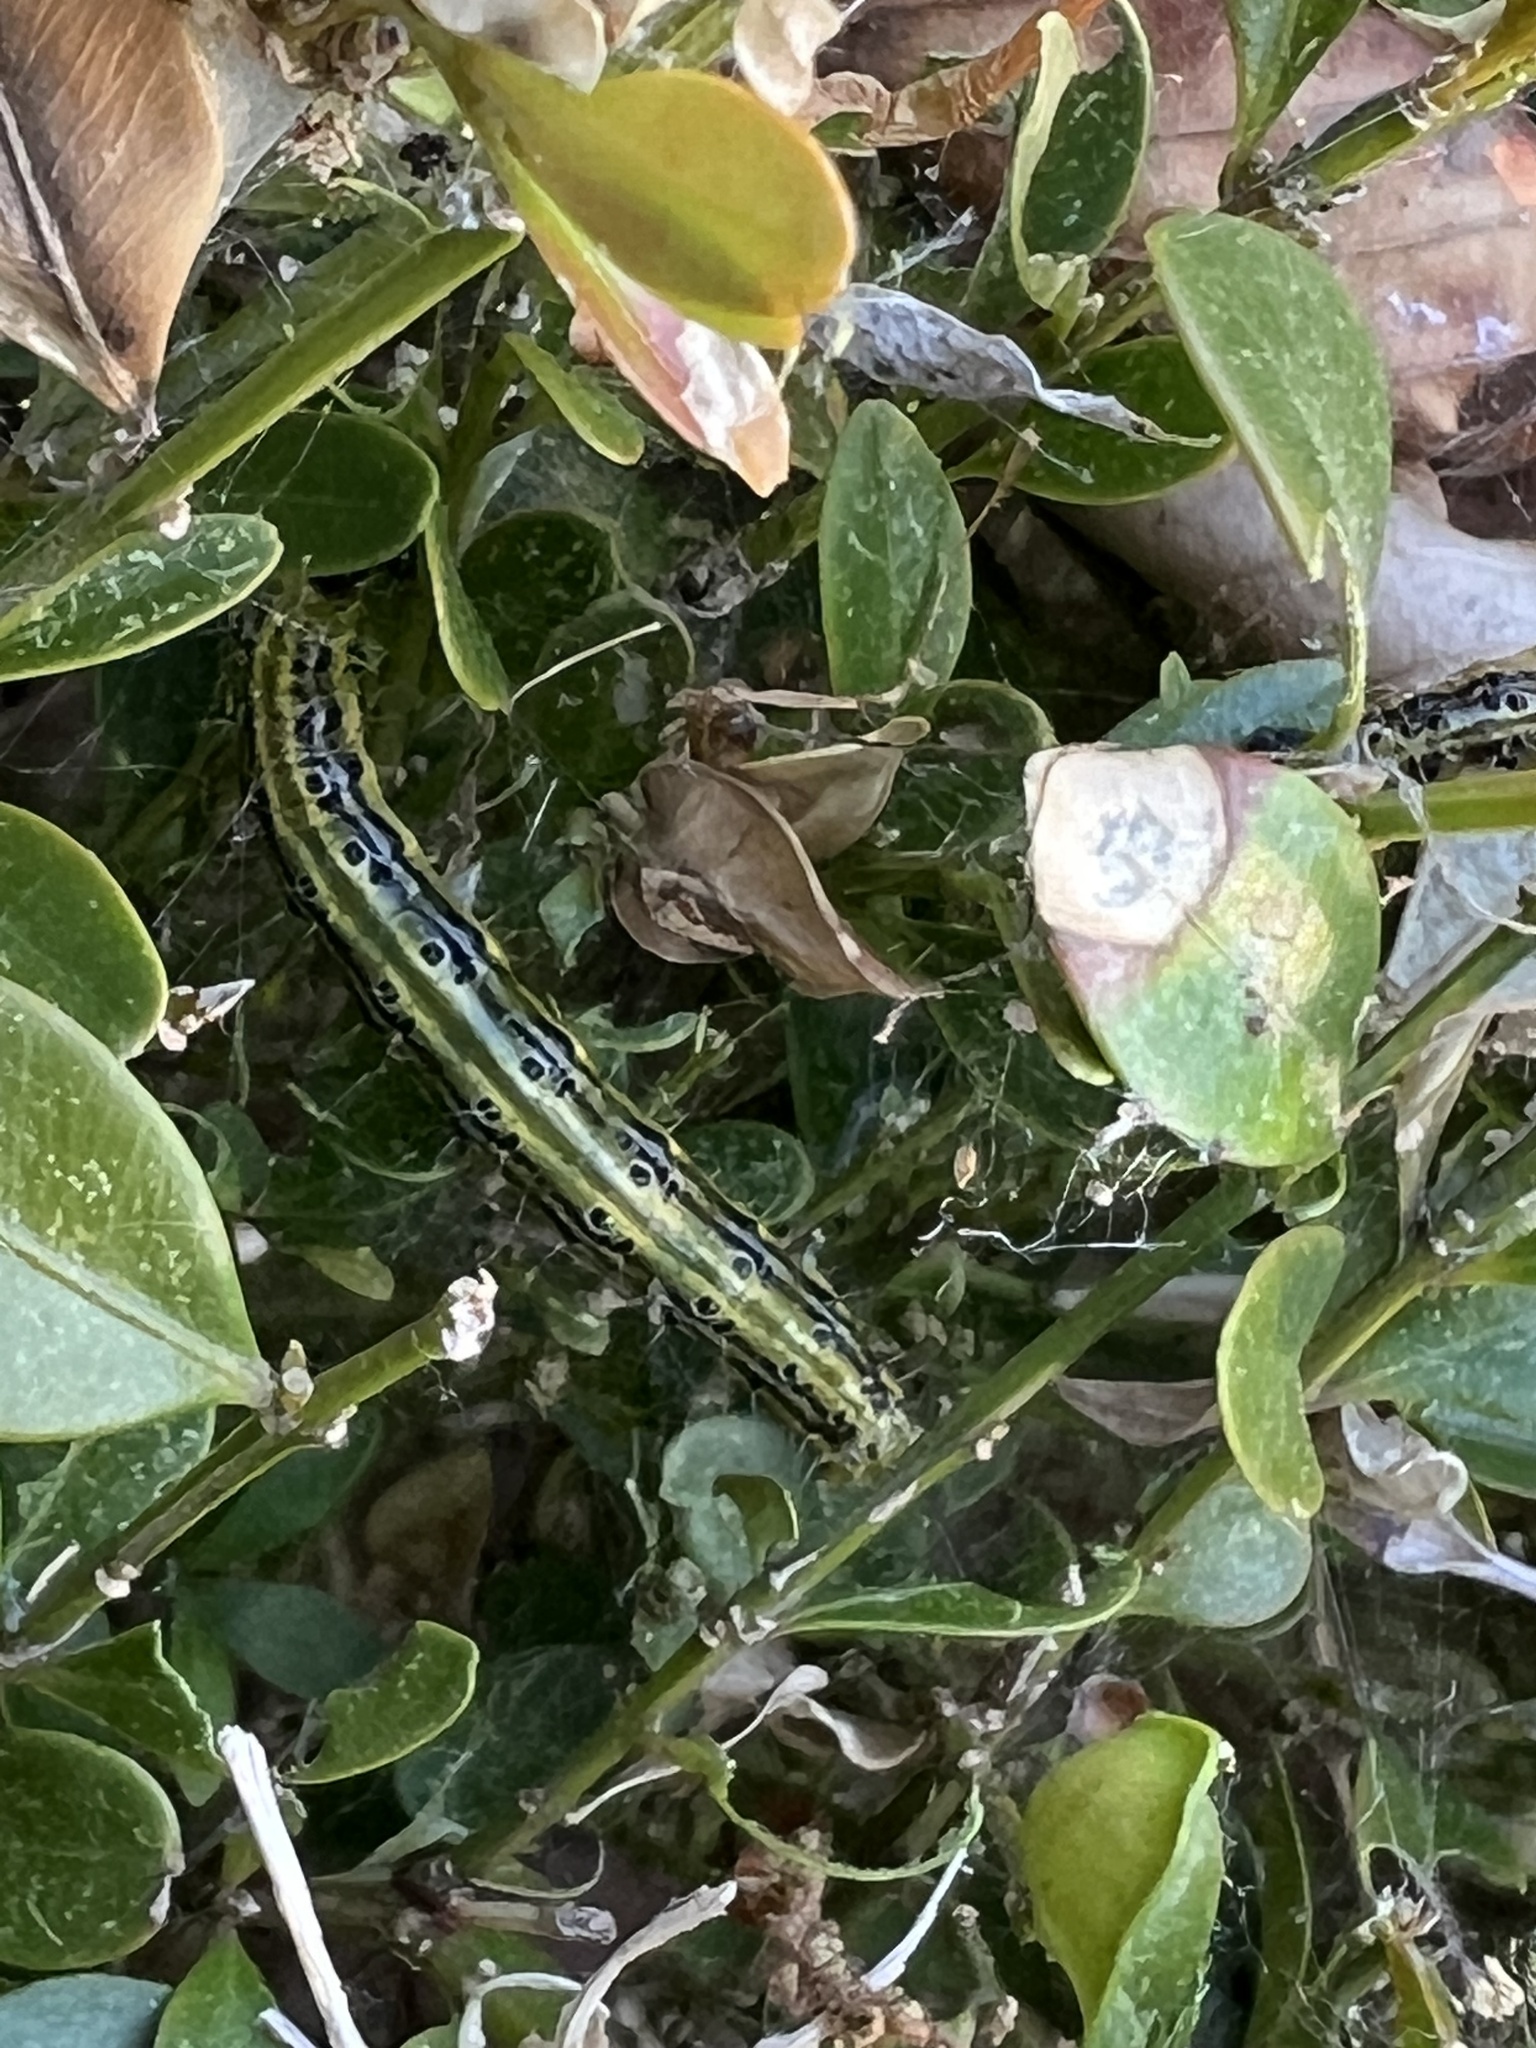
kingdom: Animalia
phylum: Arthropoda
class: Insecta
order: Lepidoptera
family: Crambidae
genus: Cydalima
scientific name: Cydalima perspectalis
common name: Box tree moth
